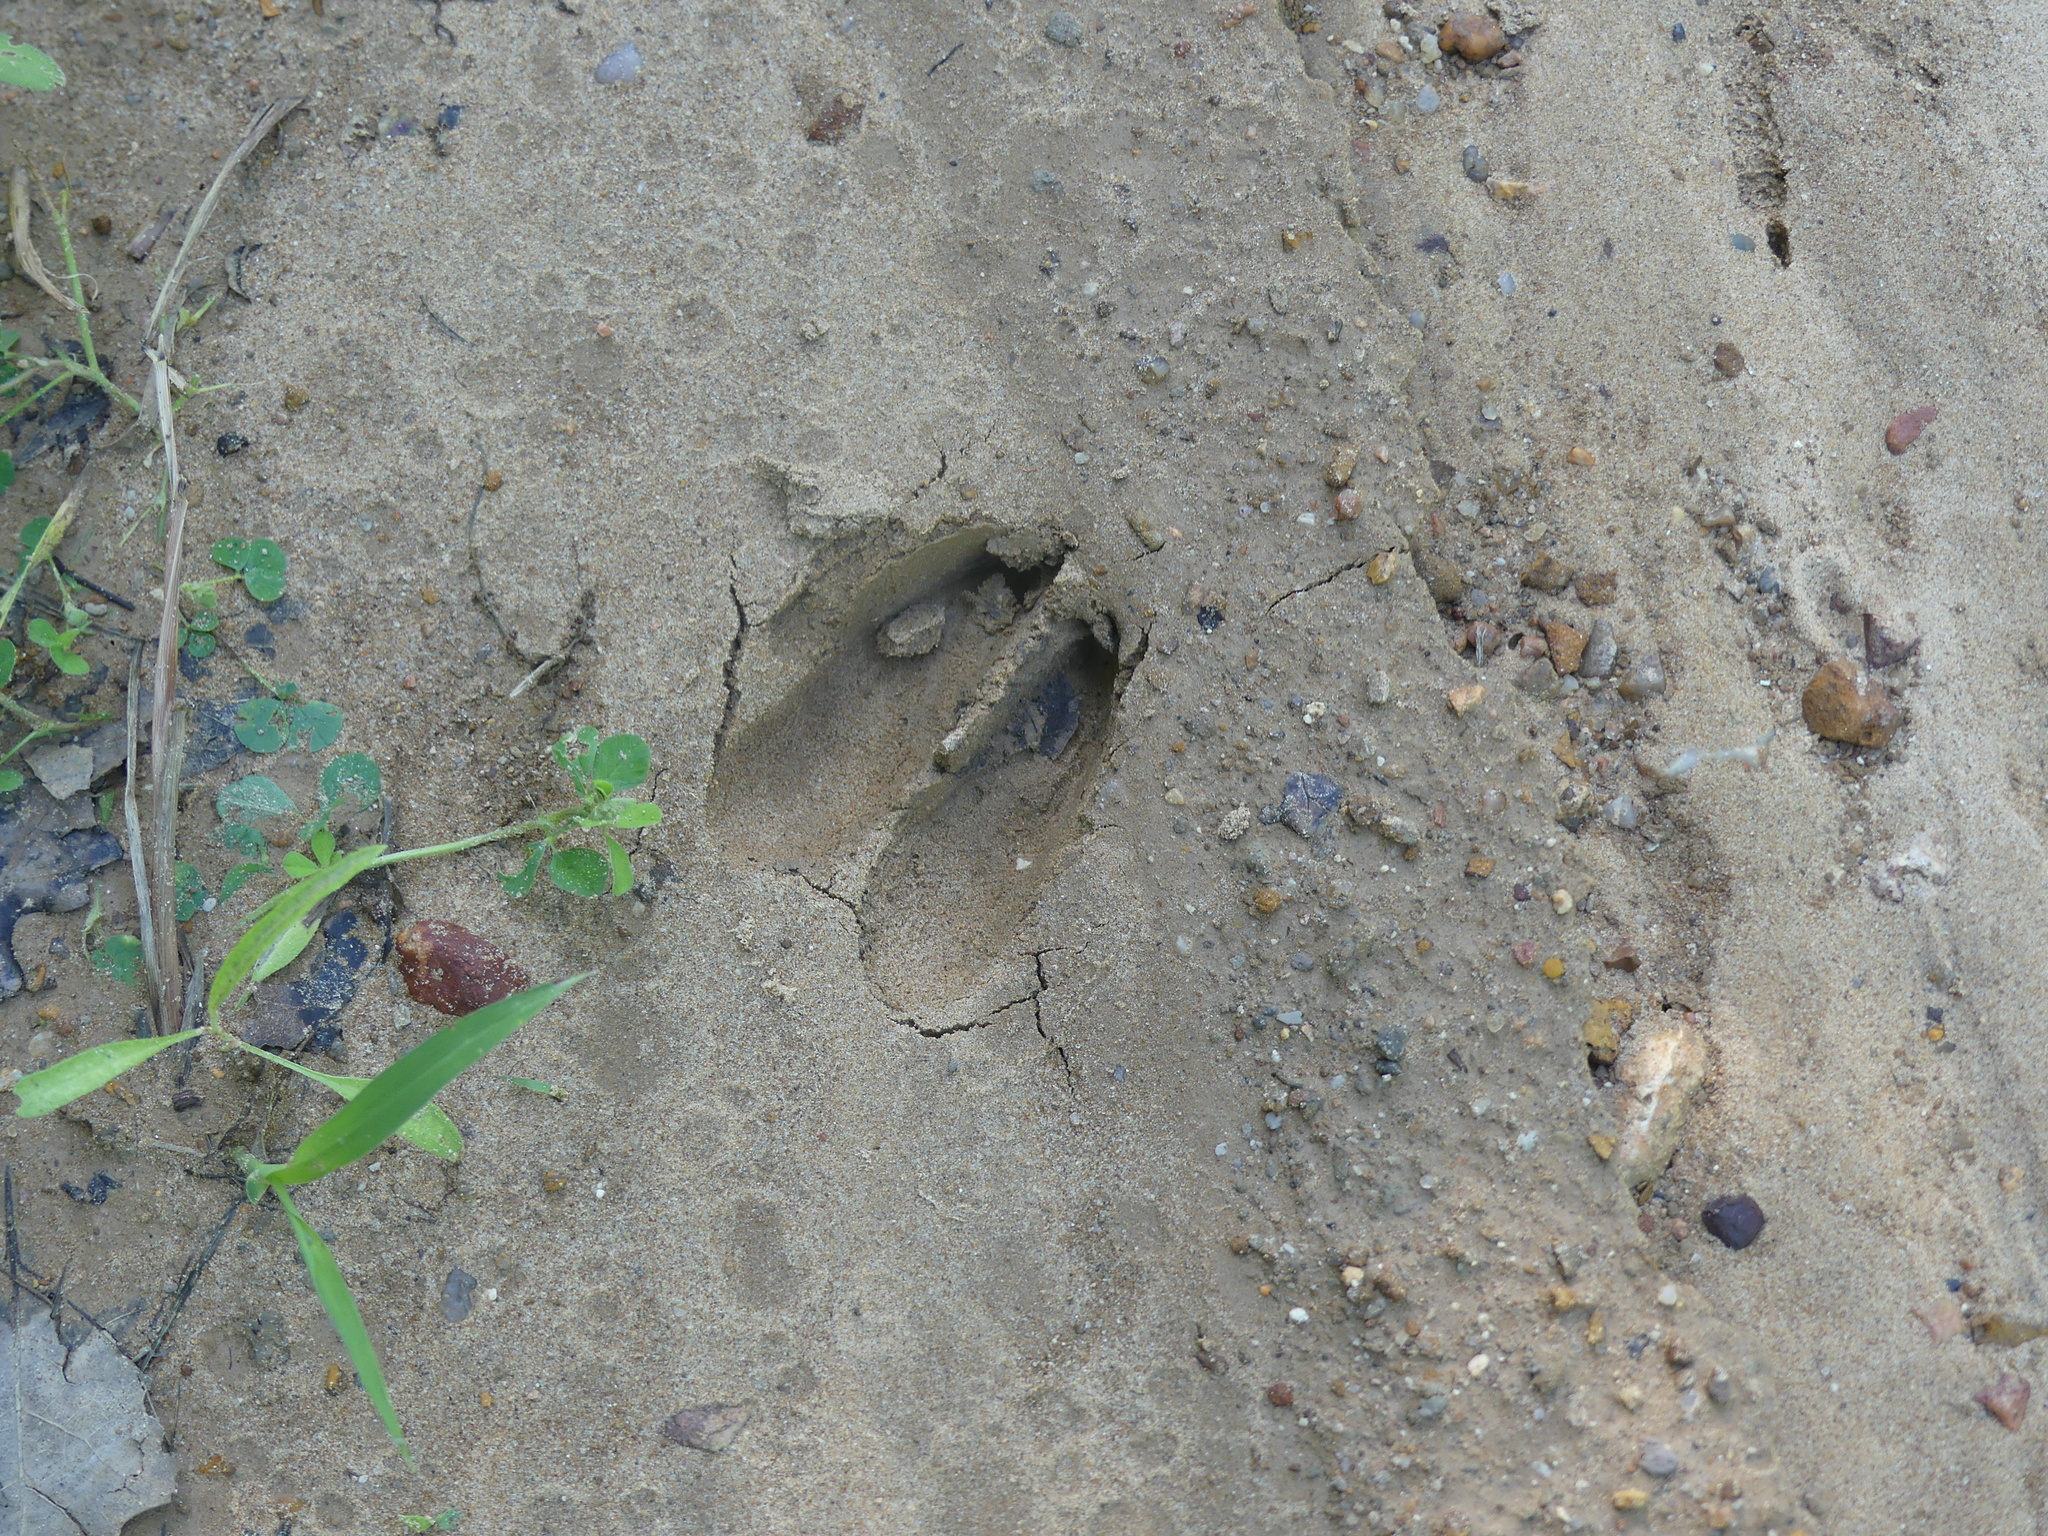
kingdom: Animalia
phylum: Chordata
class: Mammalia
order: Artiodactyla
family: Cervidae
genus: Odocoileus
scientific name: Odocoileus virginianus
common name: White-tailed deer
